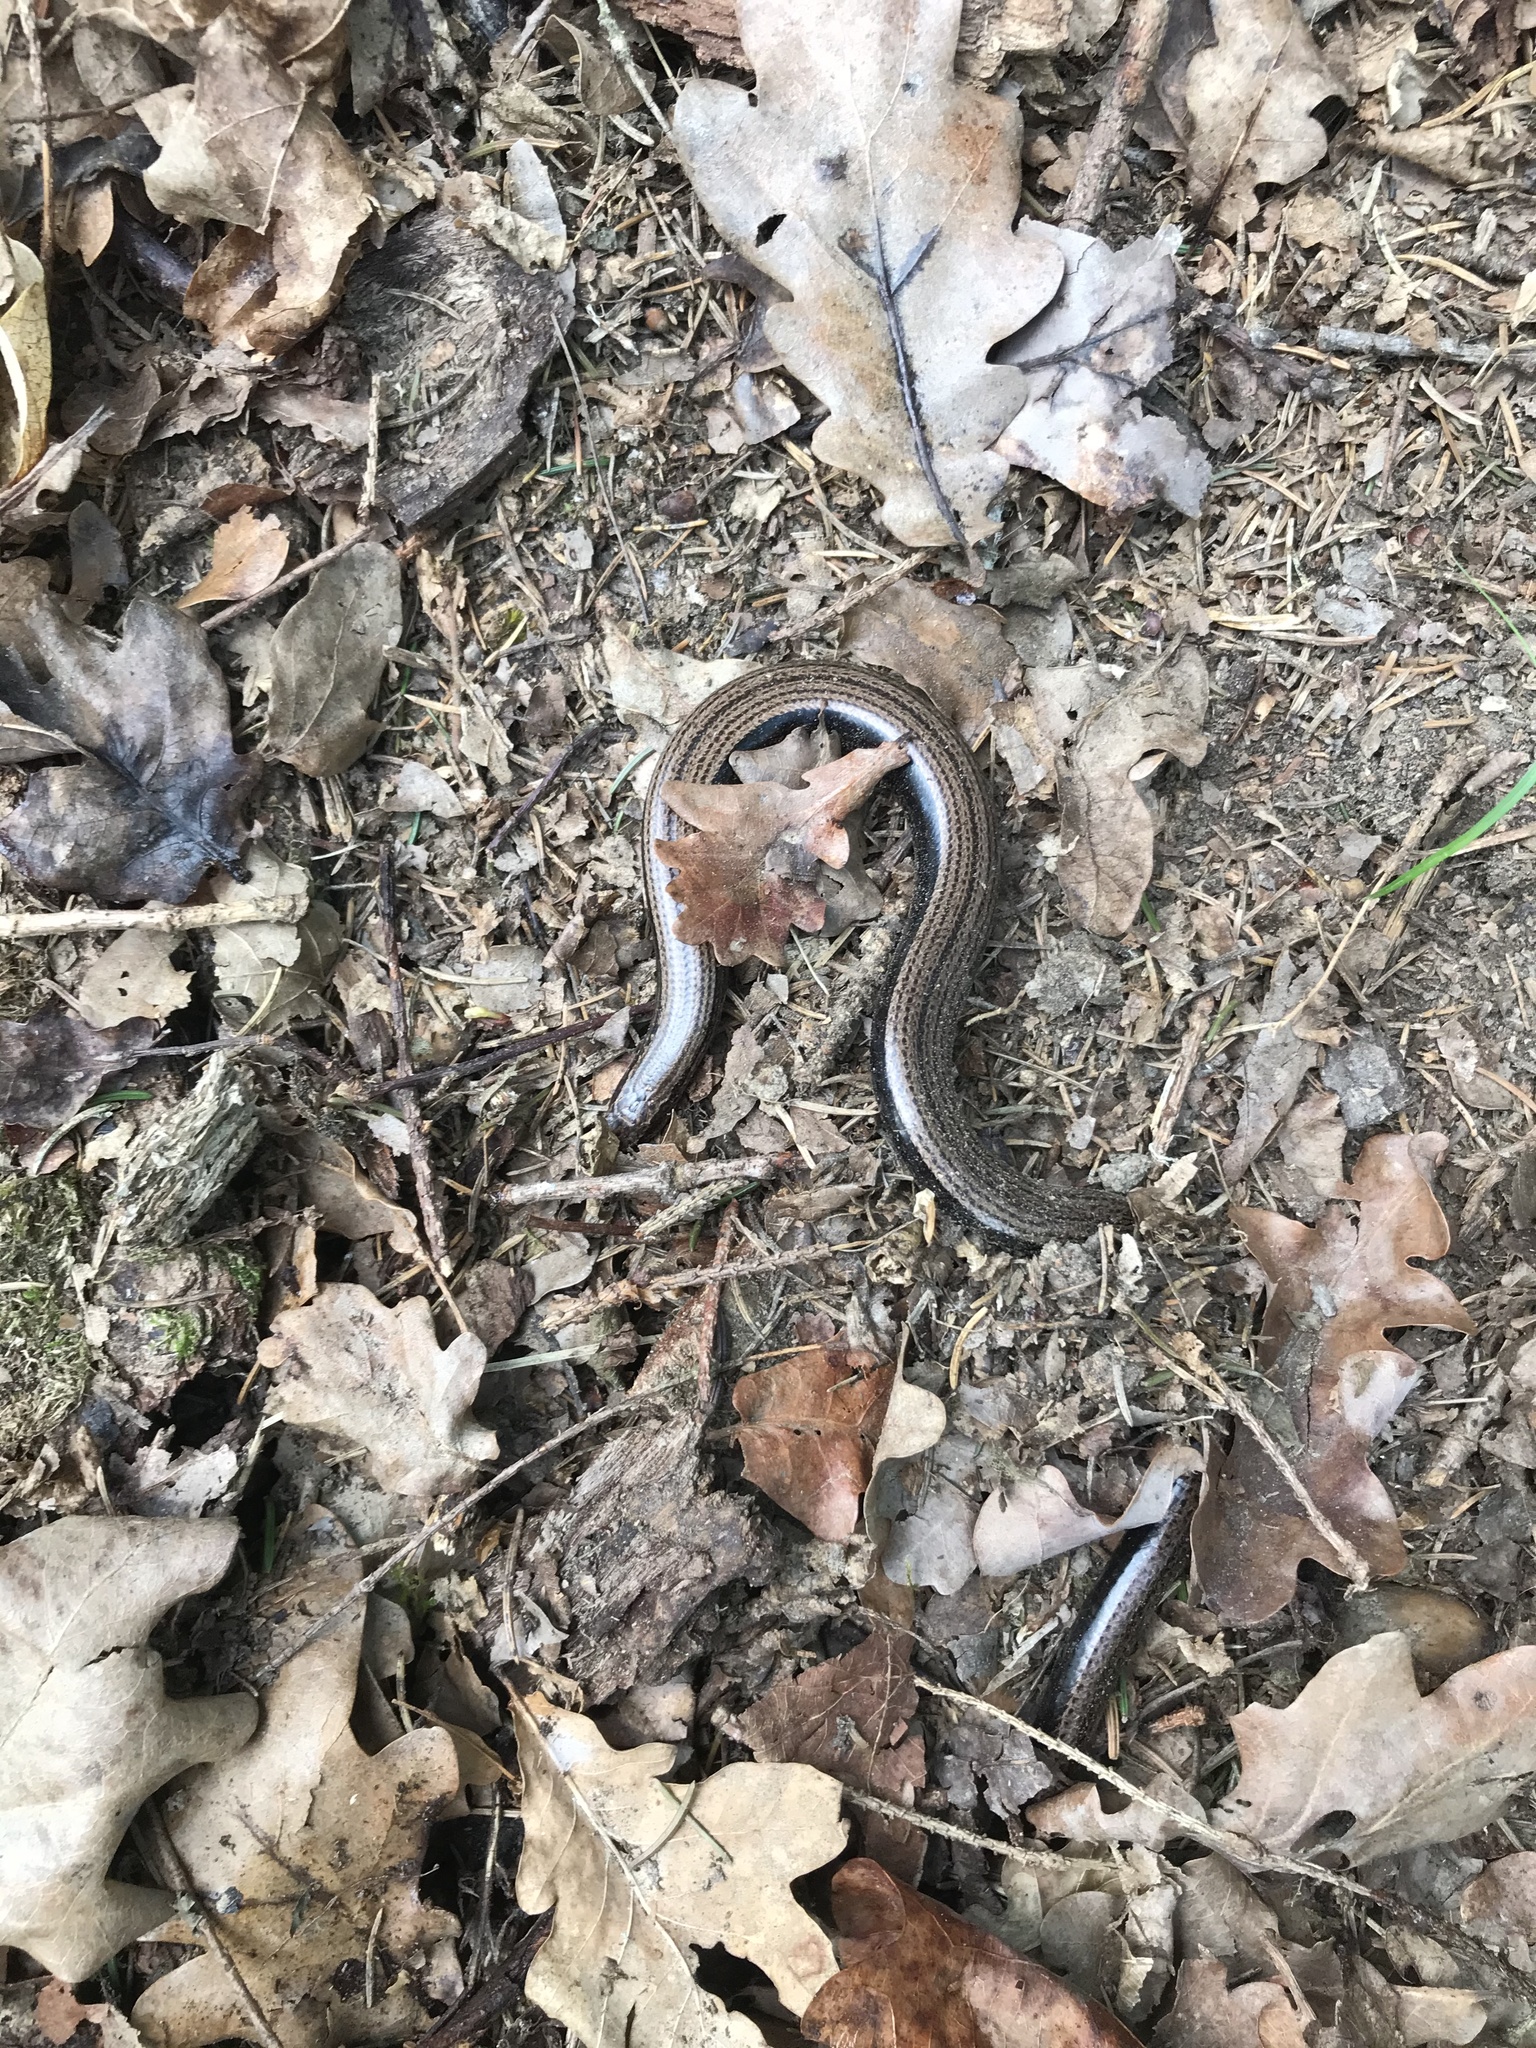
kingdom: Animalia
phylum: Chordata
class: Squamata
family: Anguidae
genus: Anguis
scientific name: Anguis fragilis
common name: Slow worm
